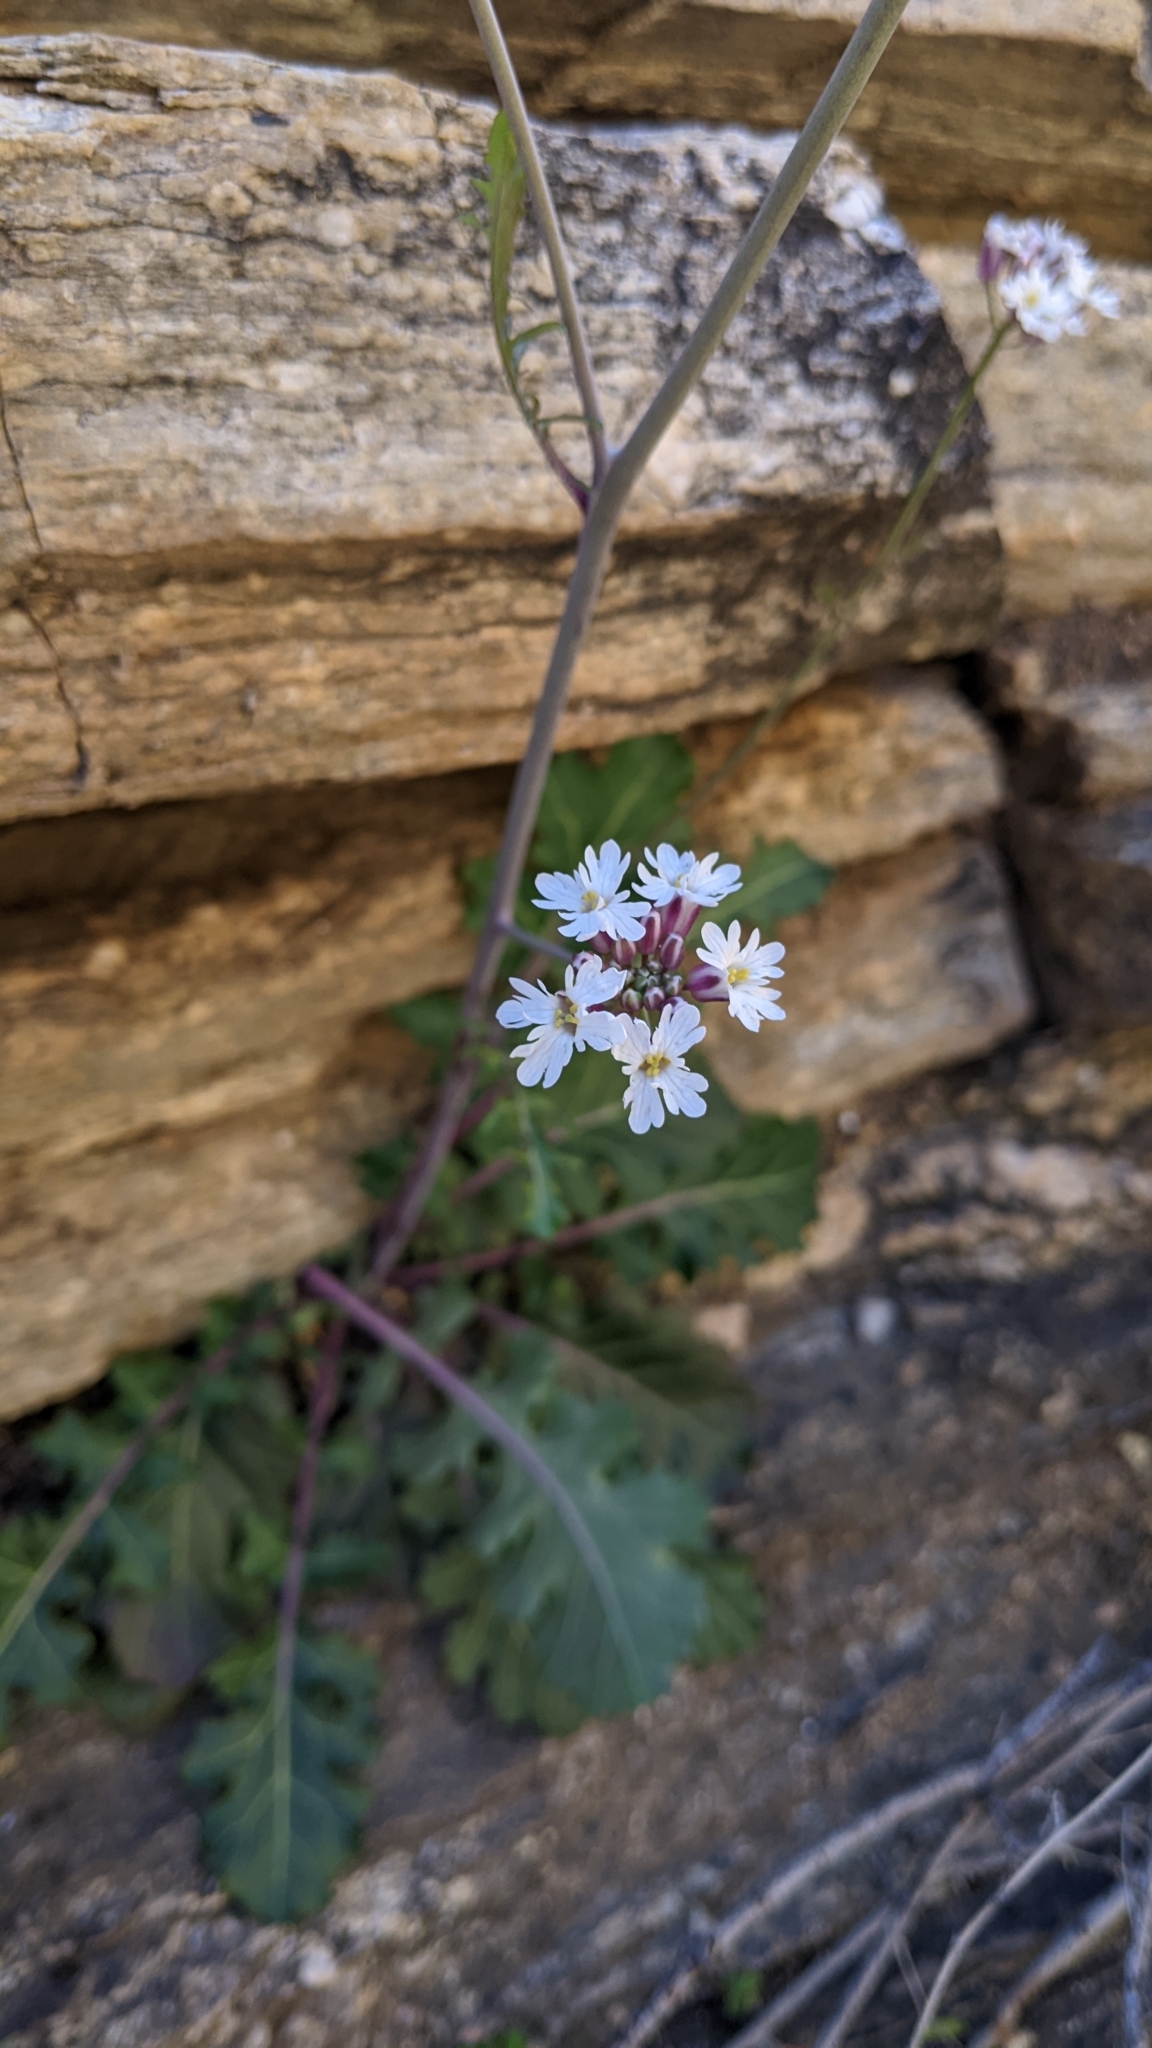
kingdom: Plantae
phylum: Tracheophyta
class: Magnoliopsida
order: Brassicales
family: Brassicaceae
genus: Dryopetalon
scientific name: Dryopetalon runcinatum
